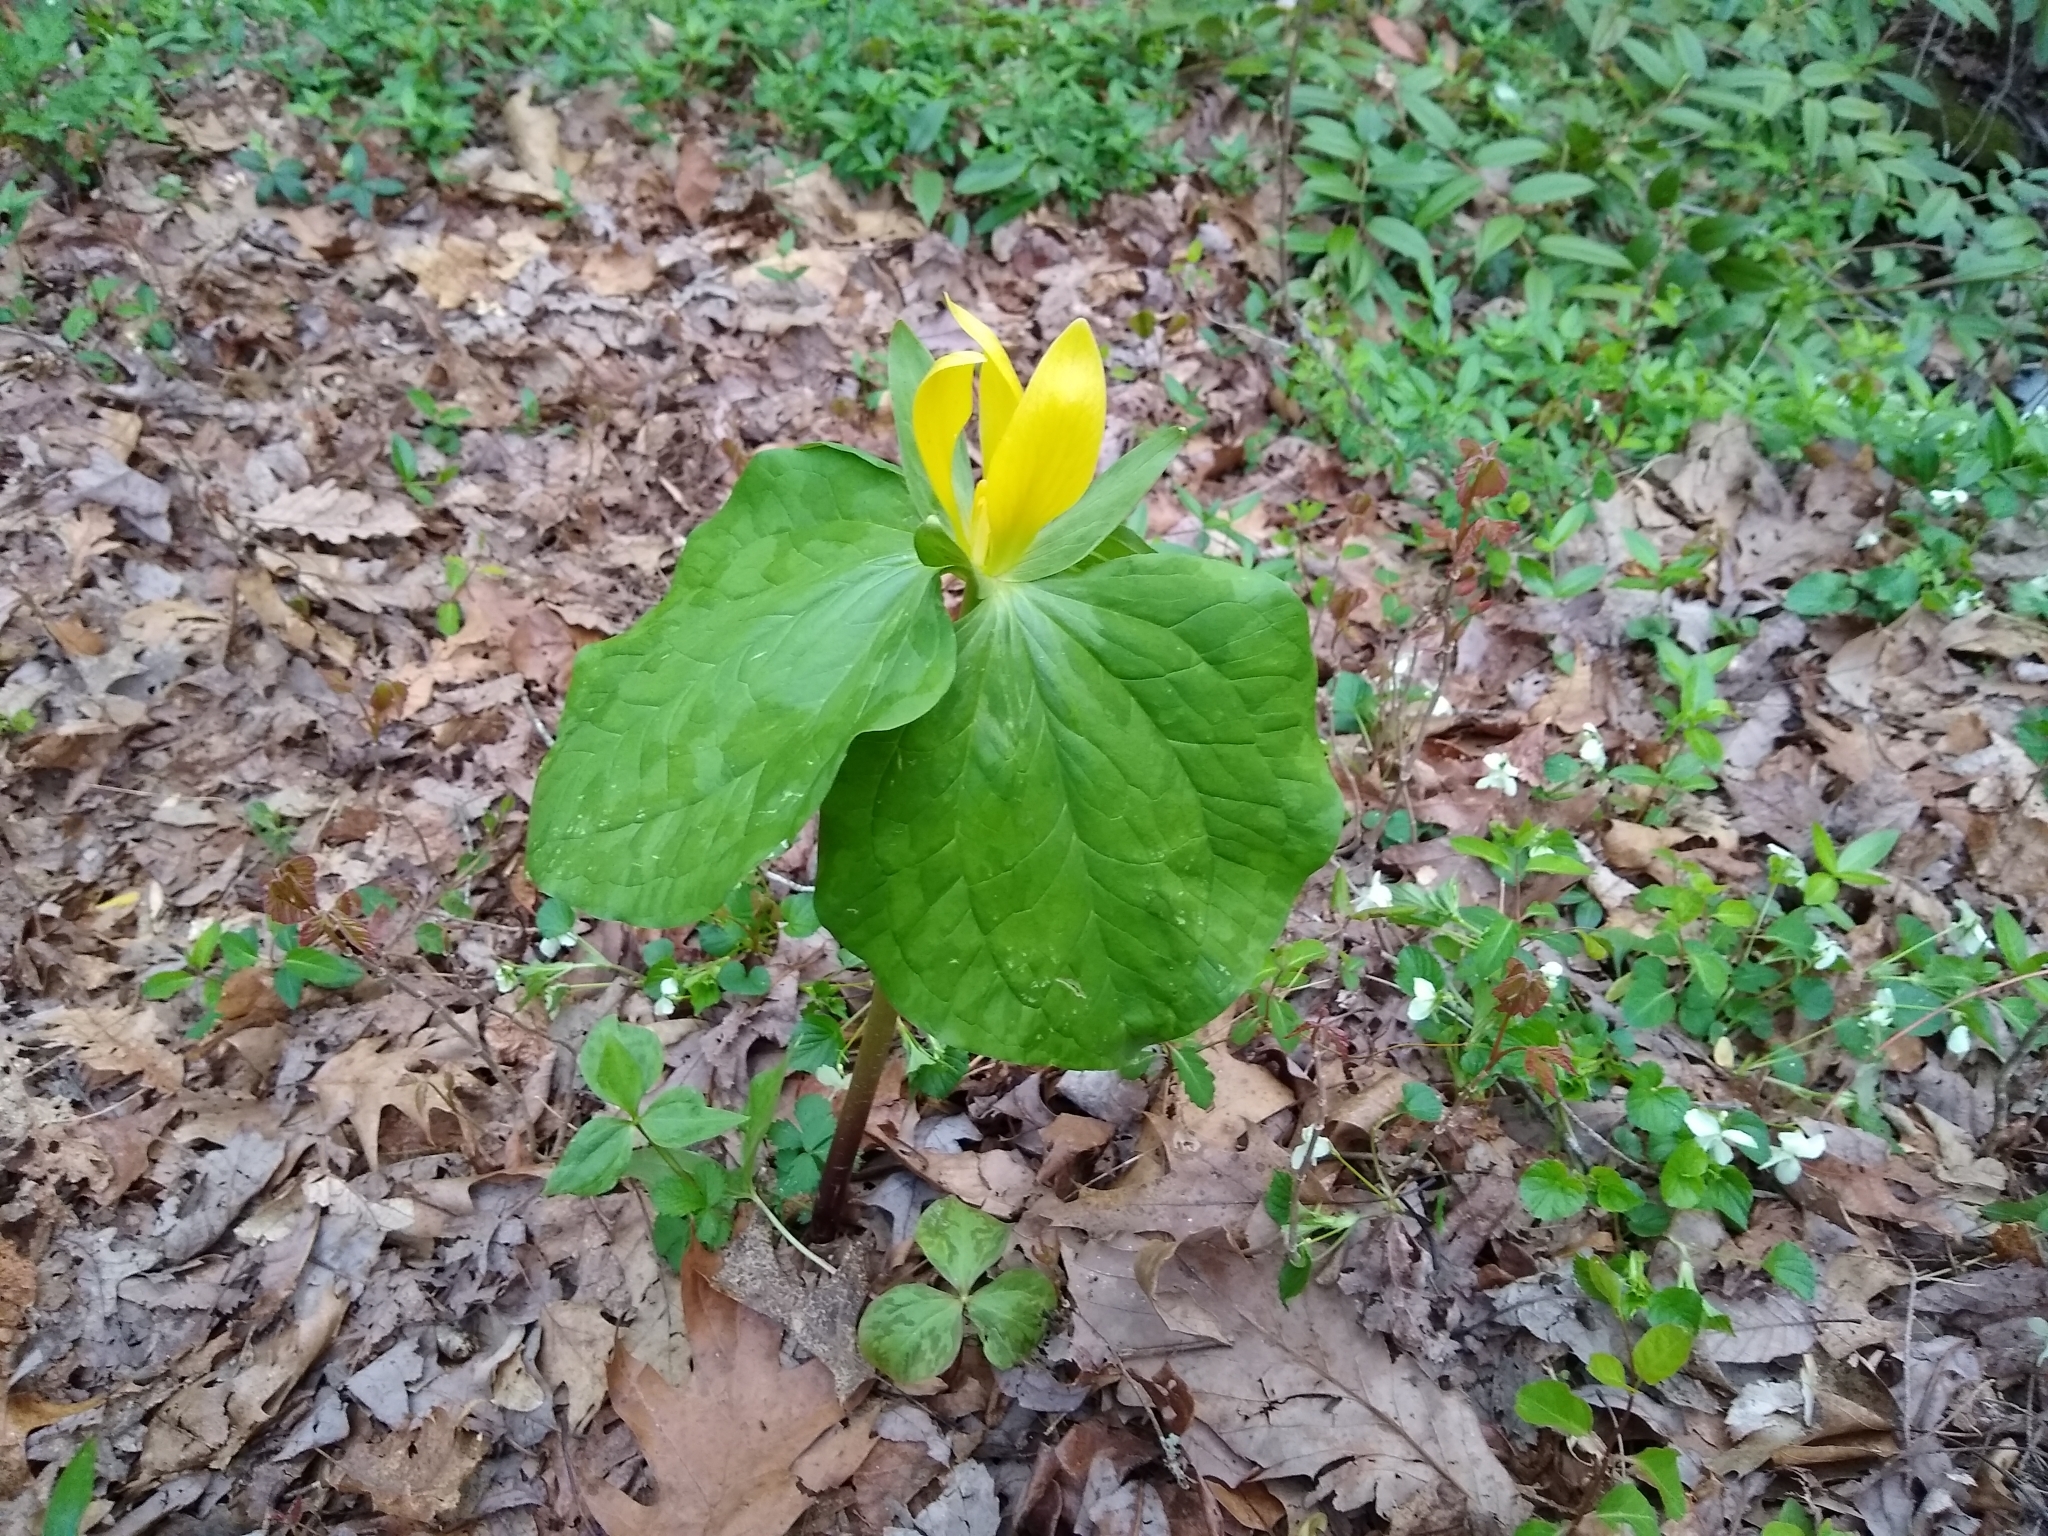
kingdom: Plantae
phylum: Tracheophyta
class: Liliopsida
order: Liliales
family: Melanthiaceae
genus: Trillium
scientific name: Trillium luteum
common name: Wax trillium
